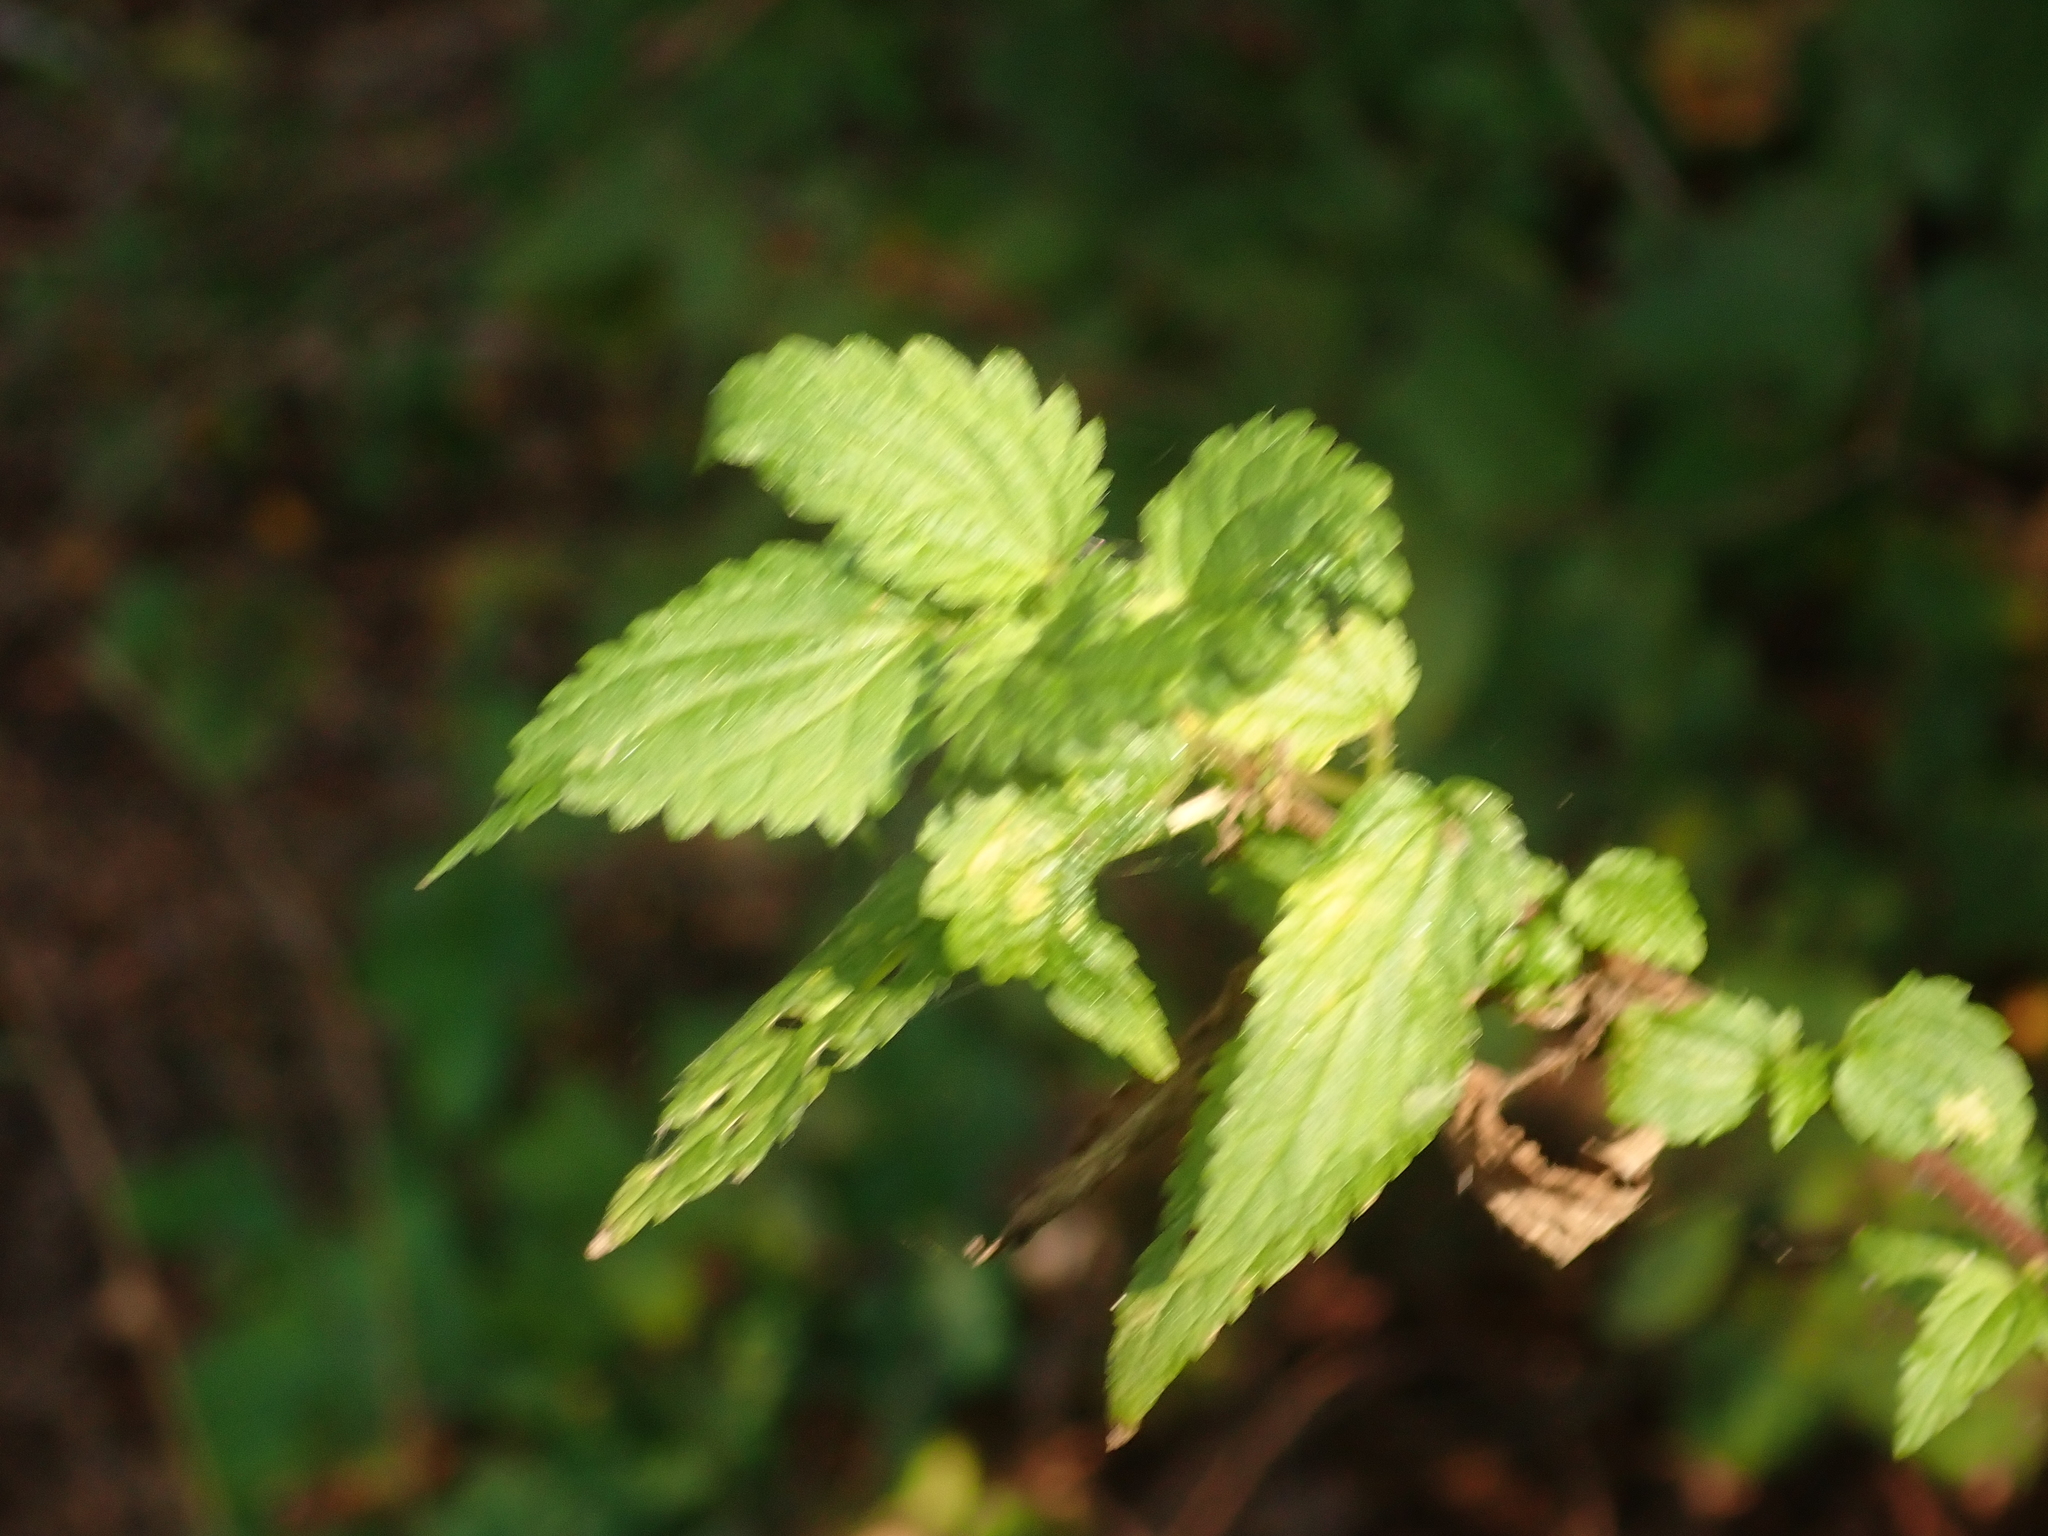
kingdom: Plantae
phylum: Tracheophyta
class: Magnoliopsida
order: Rosales
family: Urticaceae
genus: Urtica
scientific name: Urtica dioica
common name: Common nettle
